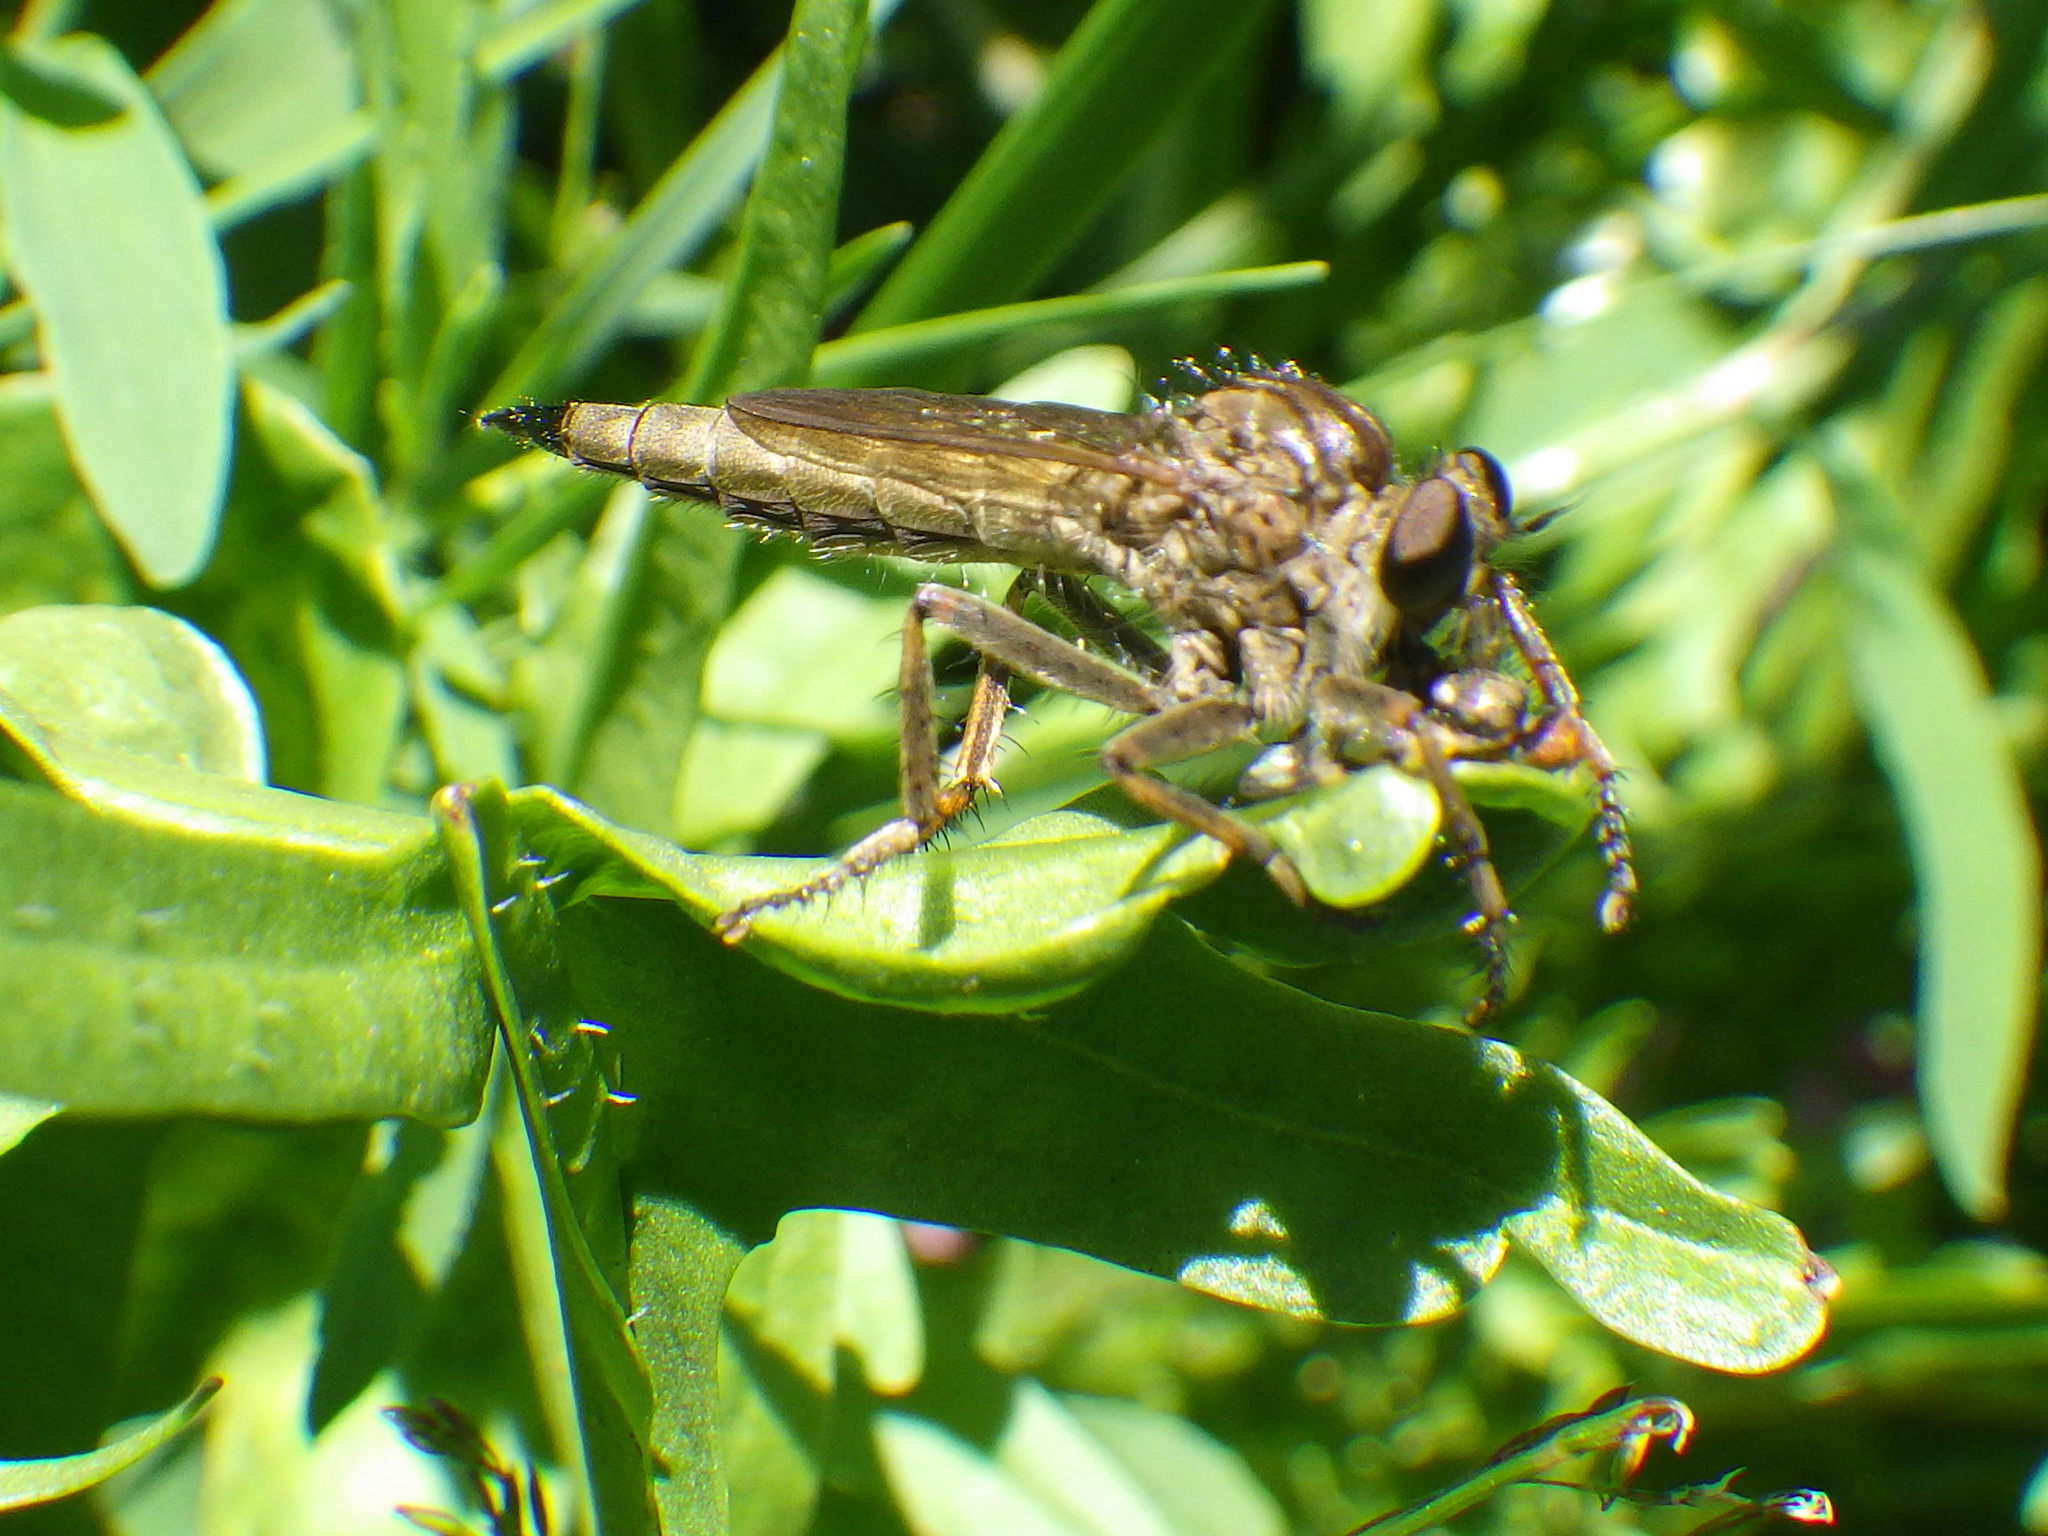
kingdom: Animalia
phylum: Arthropoda
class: Insecta
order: Diptera
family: Asilidae
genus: Machimus
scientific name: Machimus snowii
